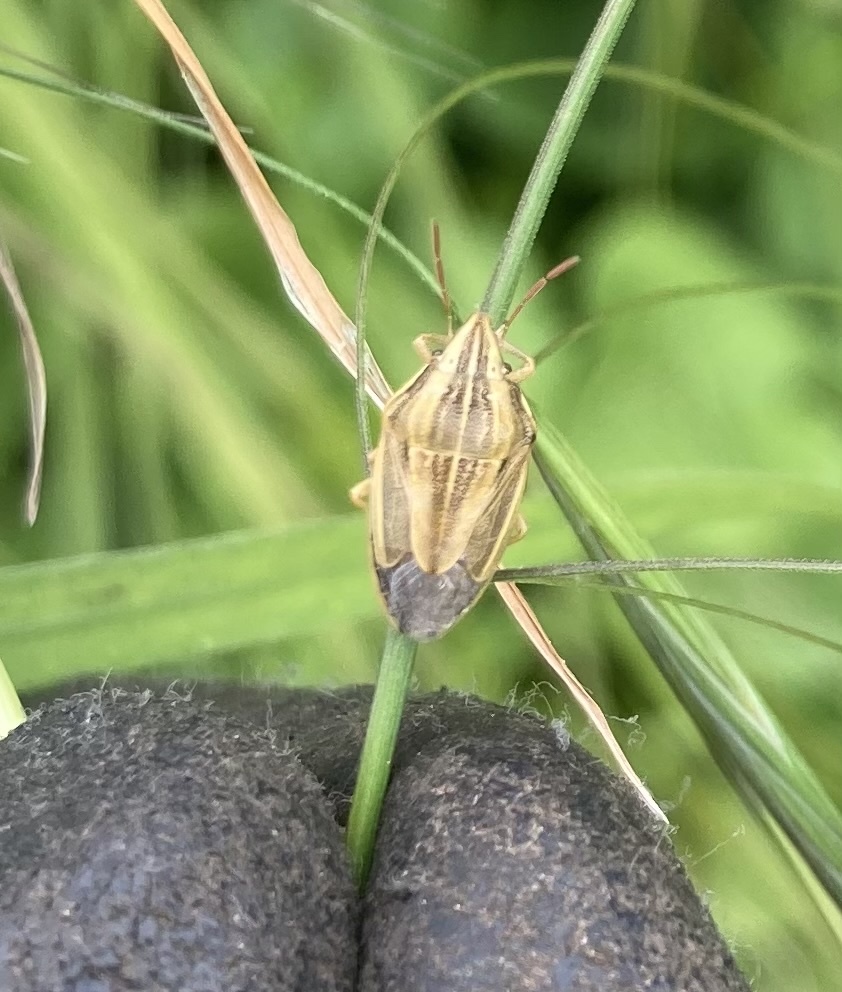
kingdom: Animalia
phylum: Arthropoda
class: Insecta
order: Hemiptera
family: Pentatomidae
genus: Aelia
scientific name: Aelia acuminata
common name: Bishop's mitre
